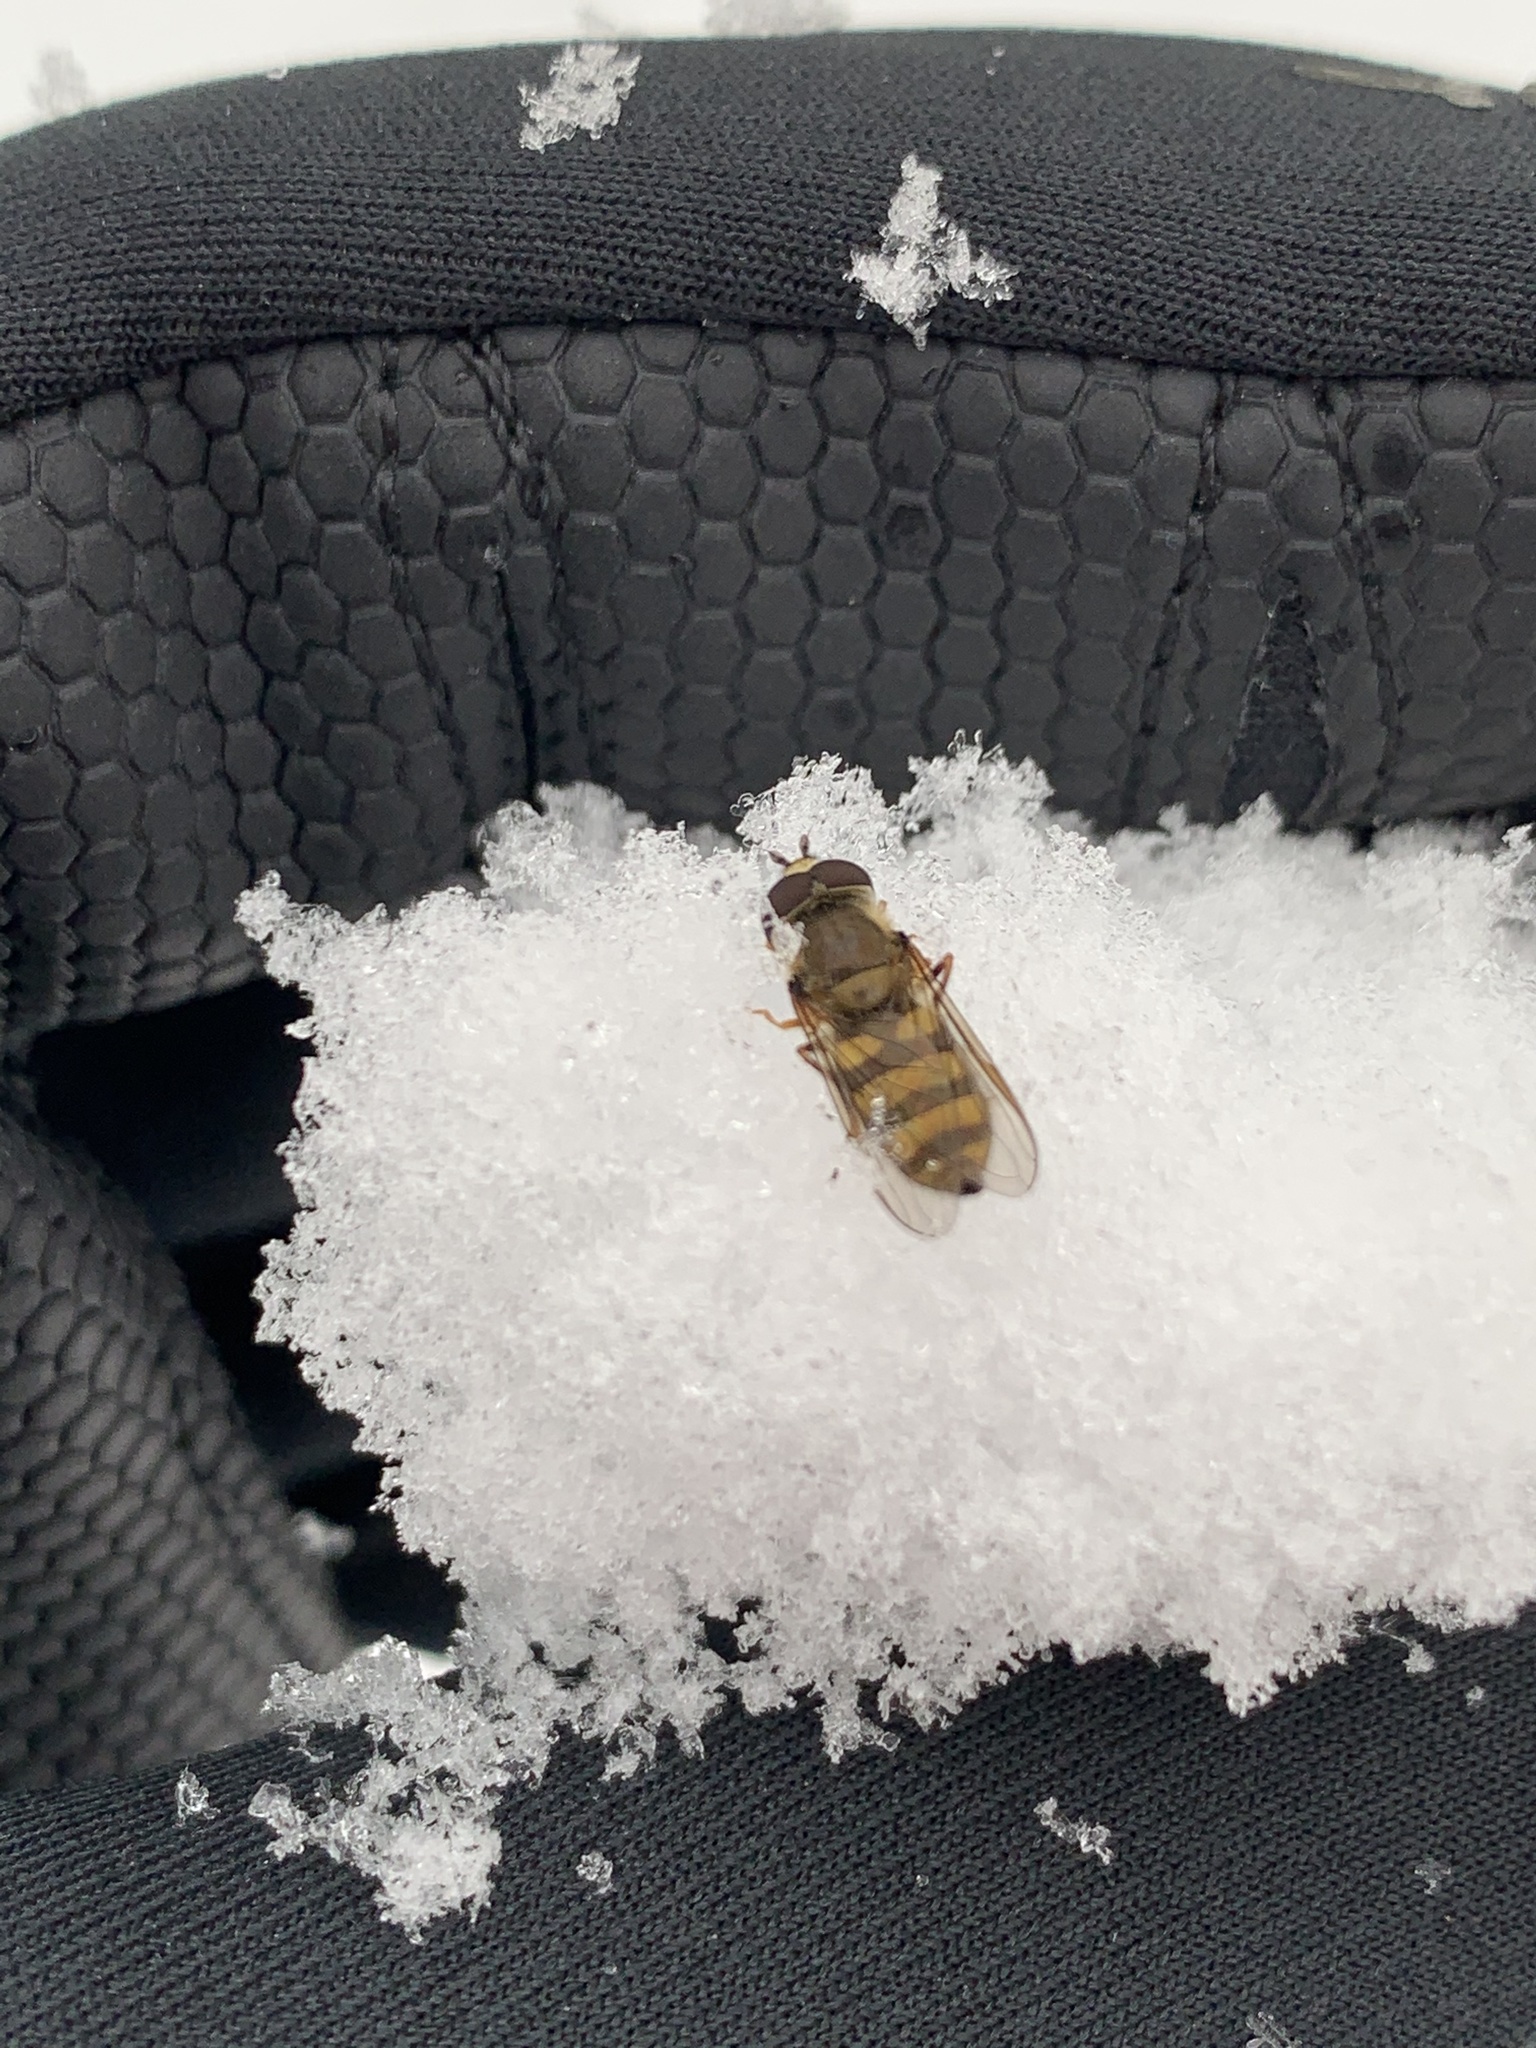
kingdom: Animalia
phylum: Arthropoda
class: Insecta
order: Diptera
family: Syrphidae
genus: Eupeodes
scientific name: Eupeodes
